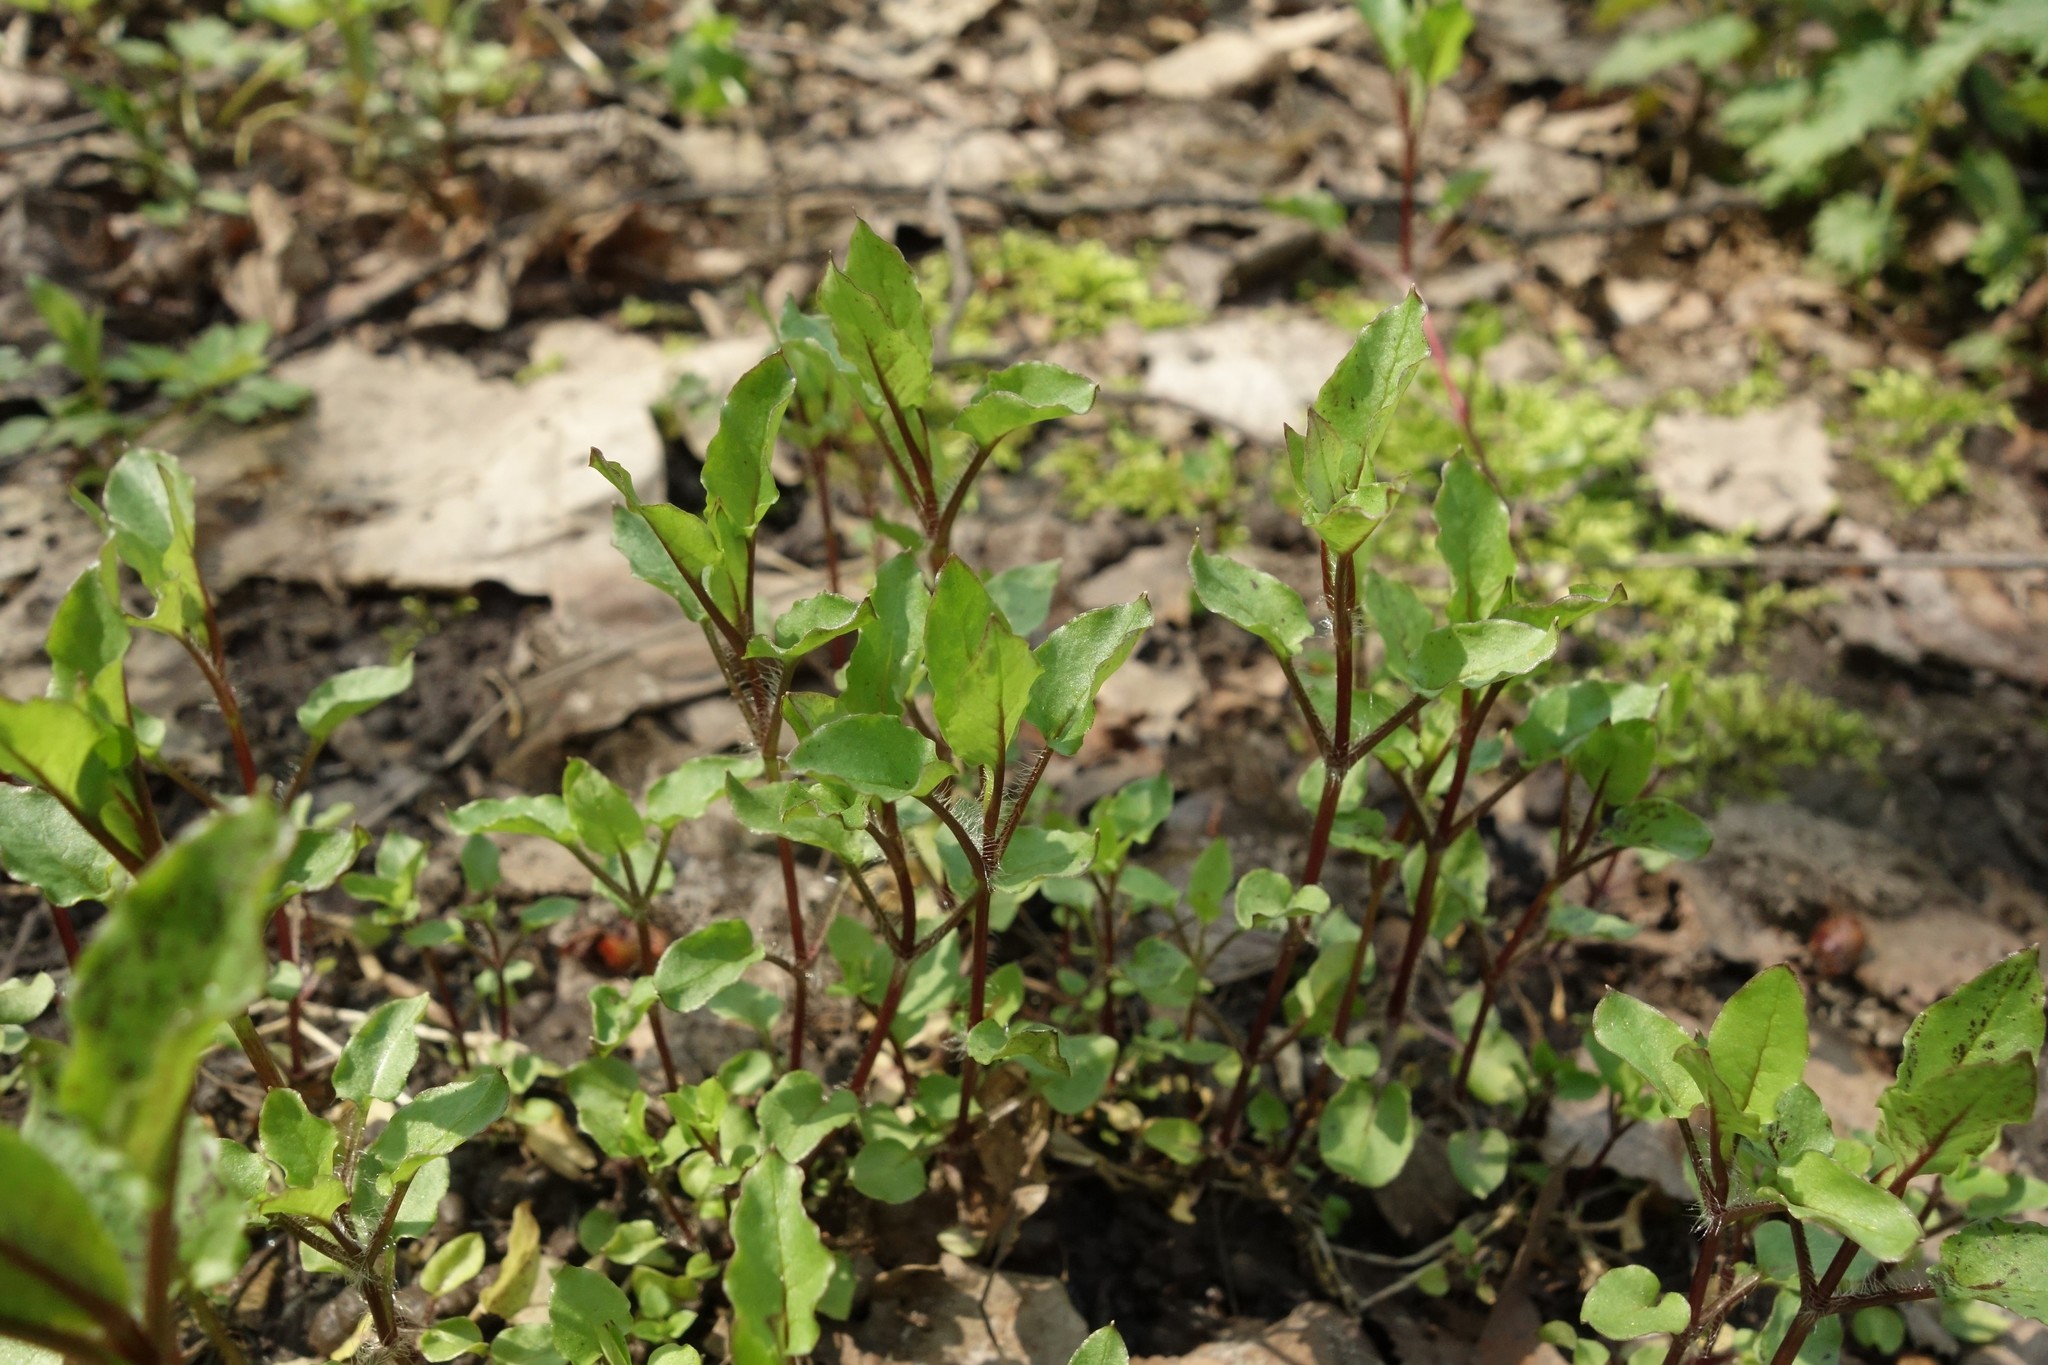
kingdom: Plantae
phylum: Tracheophyta
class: Magnoliopsida
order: Caryophyllales
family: Caryophyllaceae
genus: Stellaria
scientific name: Stellaria aquatica
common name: Water chickweed
